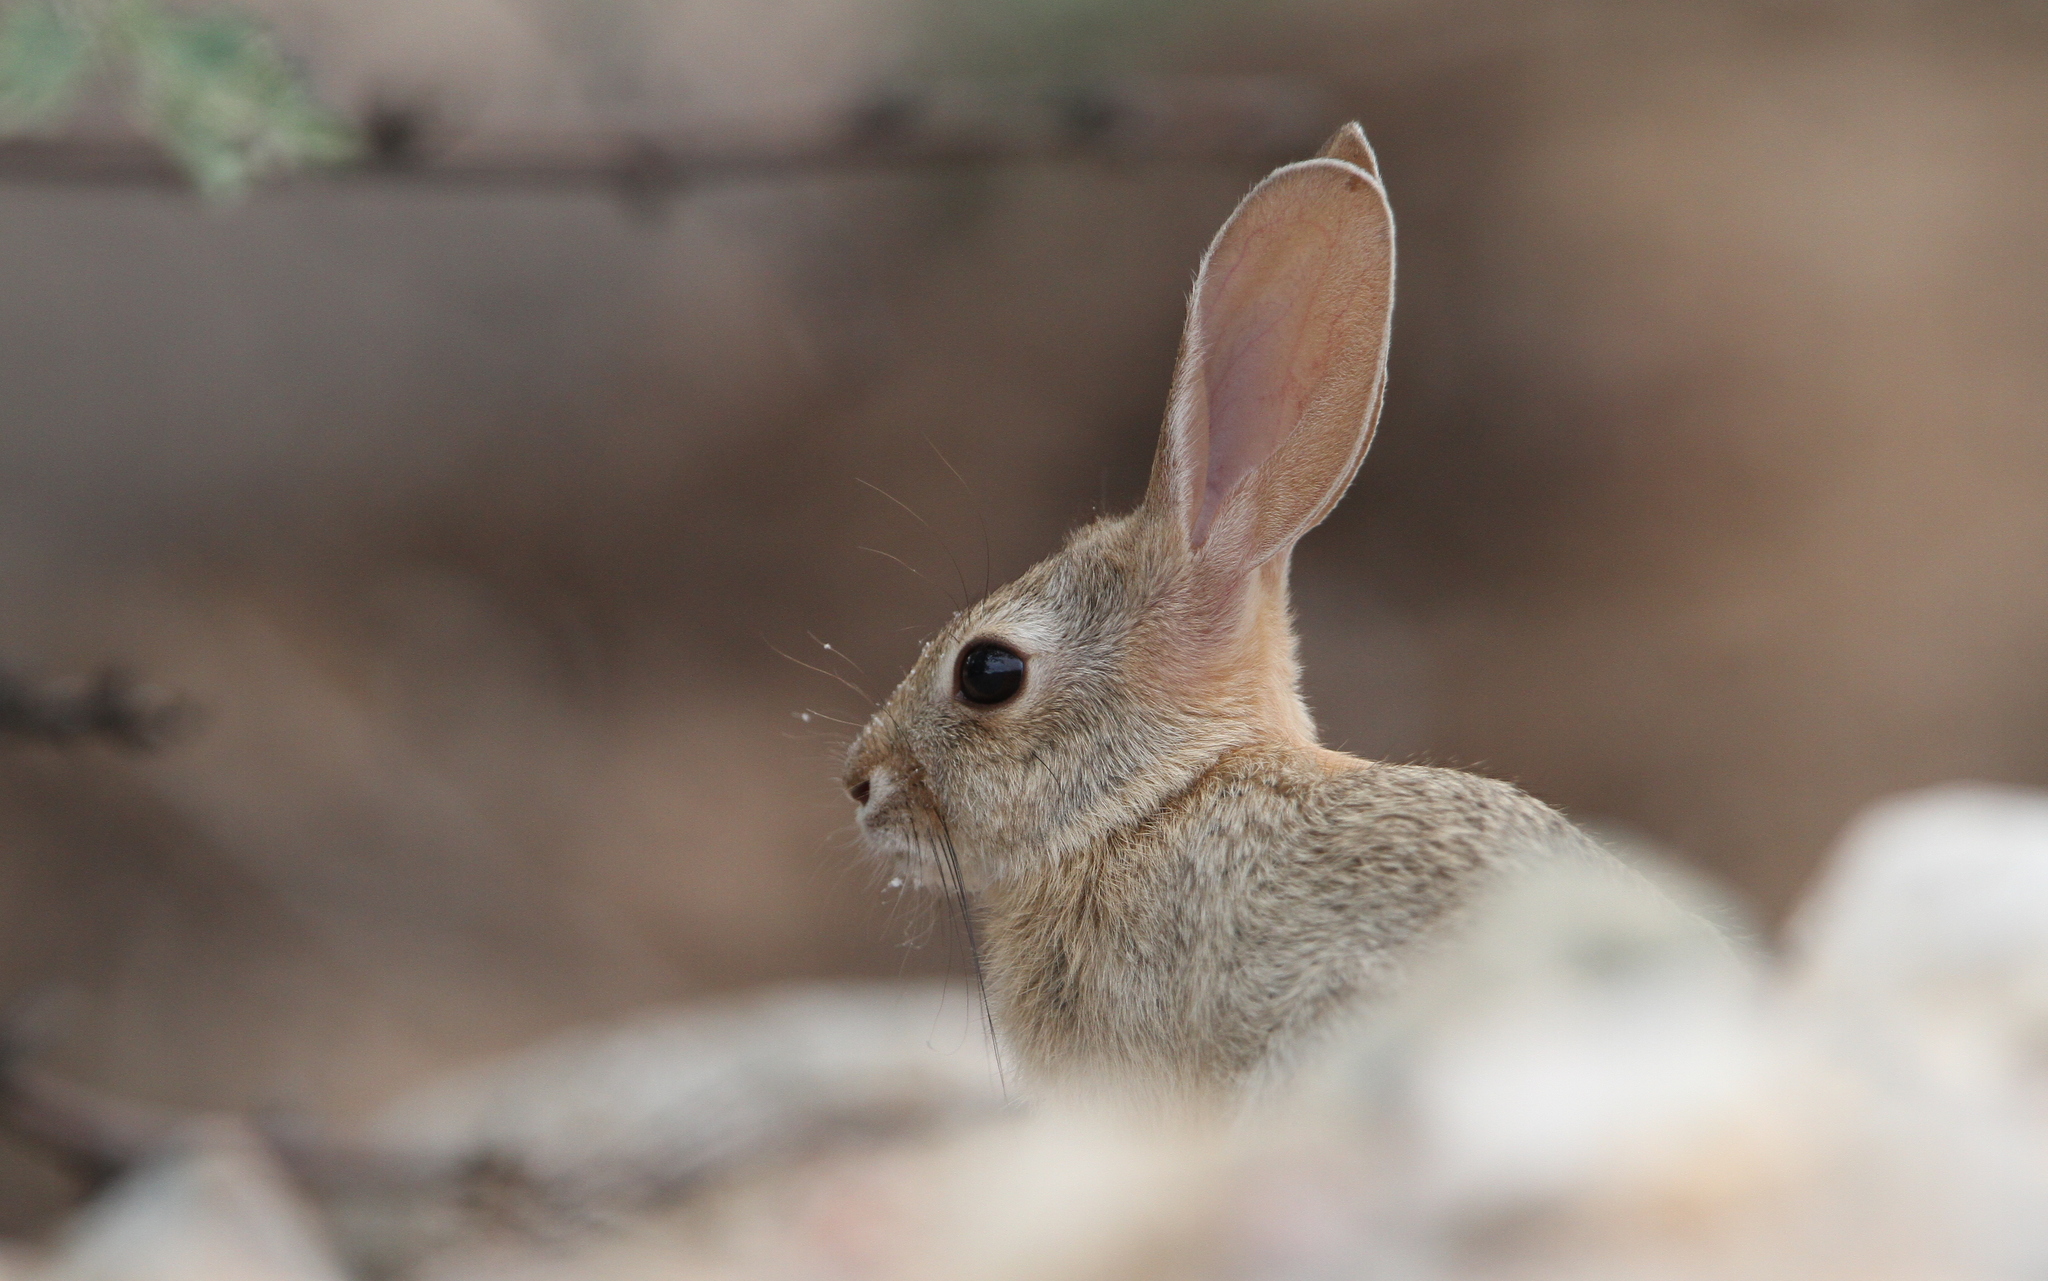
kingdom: Animalia
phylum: Chordata
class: Mammalia
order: Lagomorpha
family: Leporidae
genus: Sylvilagus
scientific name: Sylvilagus audubonii
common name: Desert cottontail
